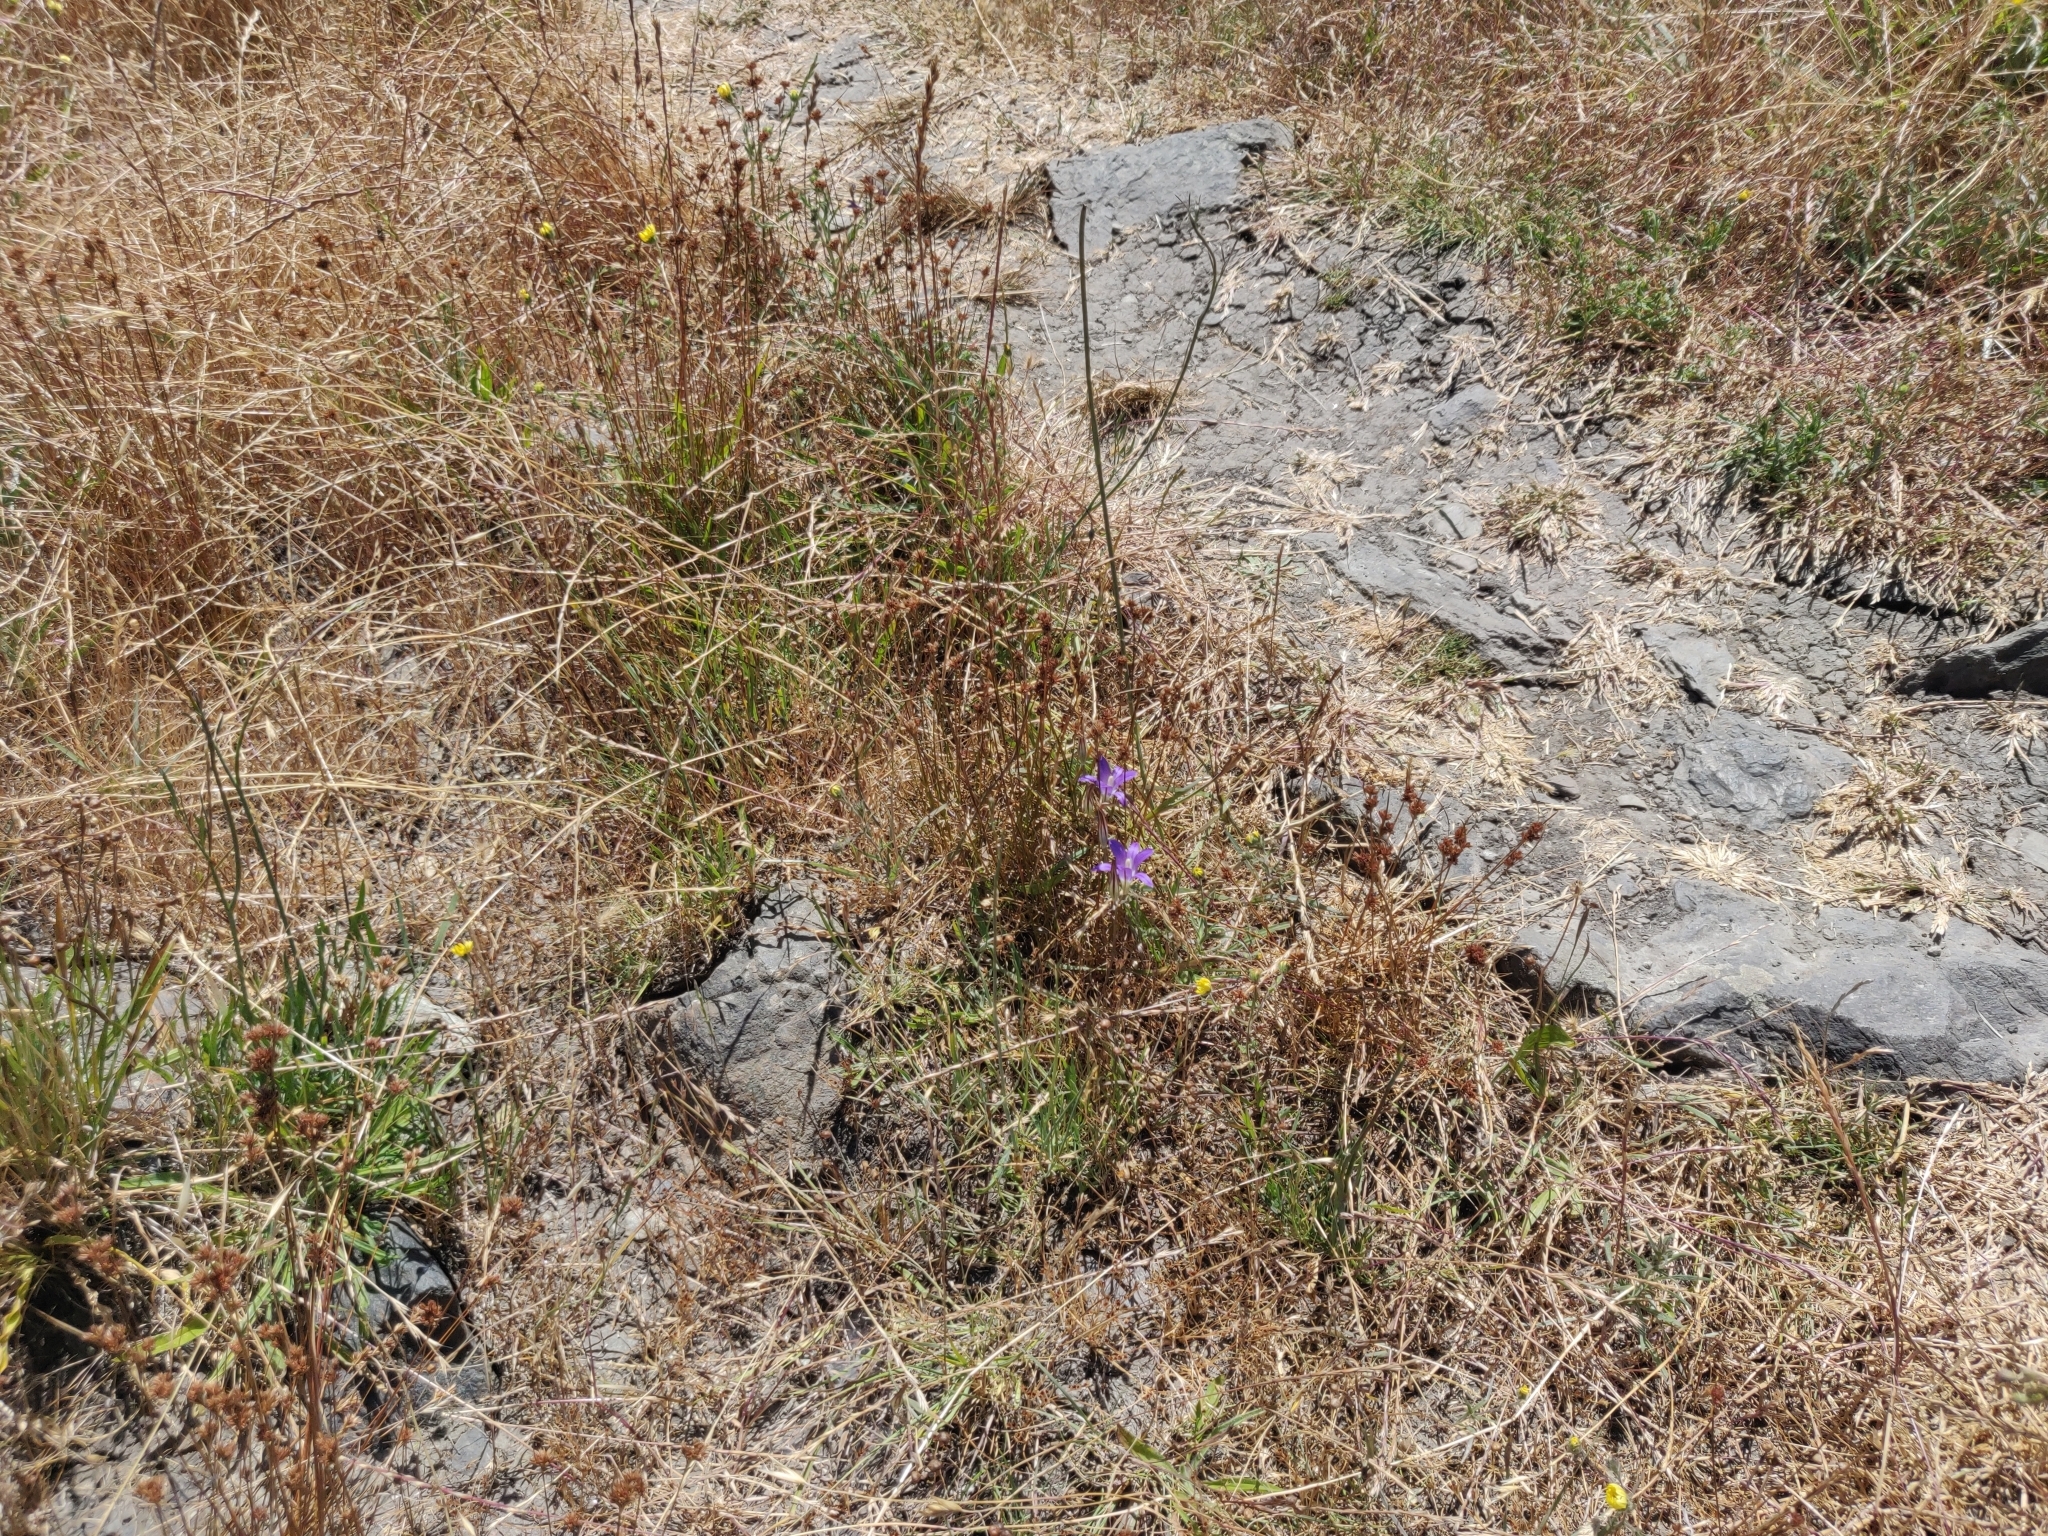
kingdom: Plantae
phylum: Tracheophyta
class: Liliopsida
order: Asparagales
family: Iridaceae
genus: Sisyrinchium
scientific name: Sisyrinchium bellum
